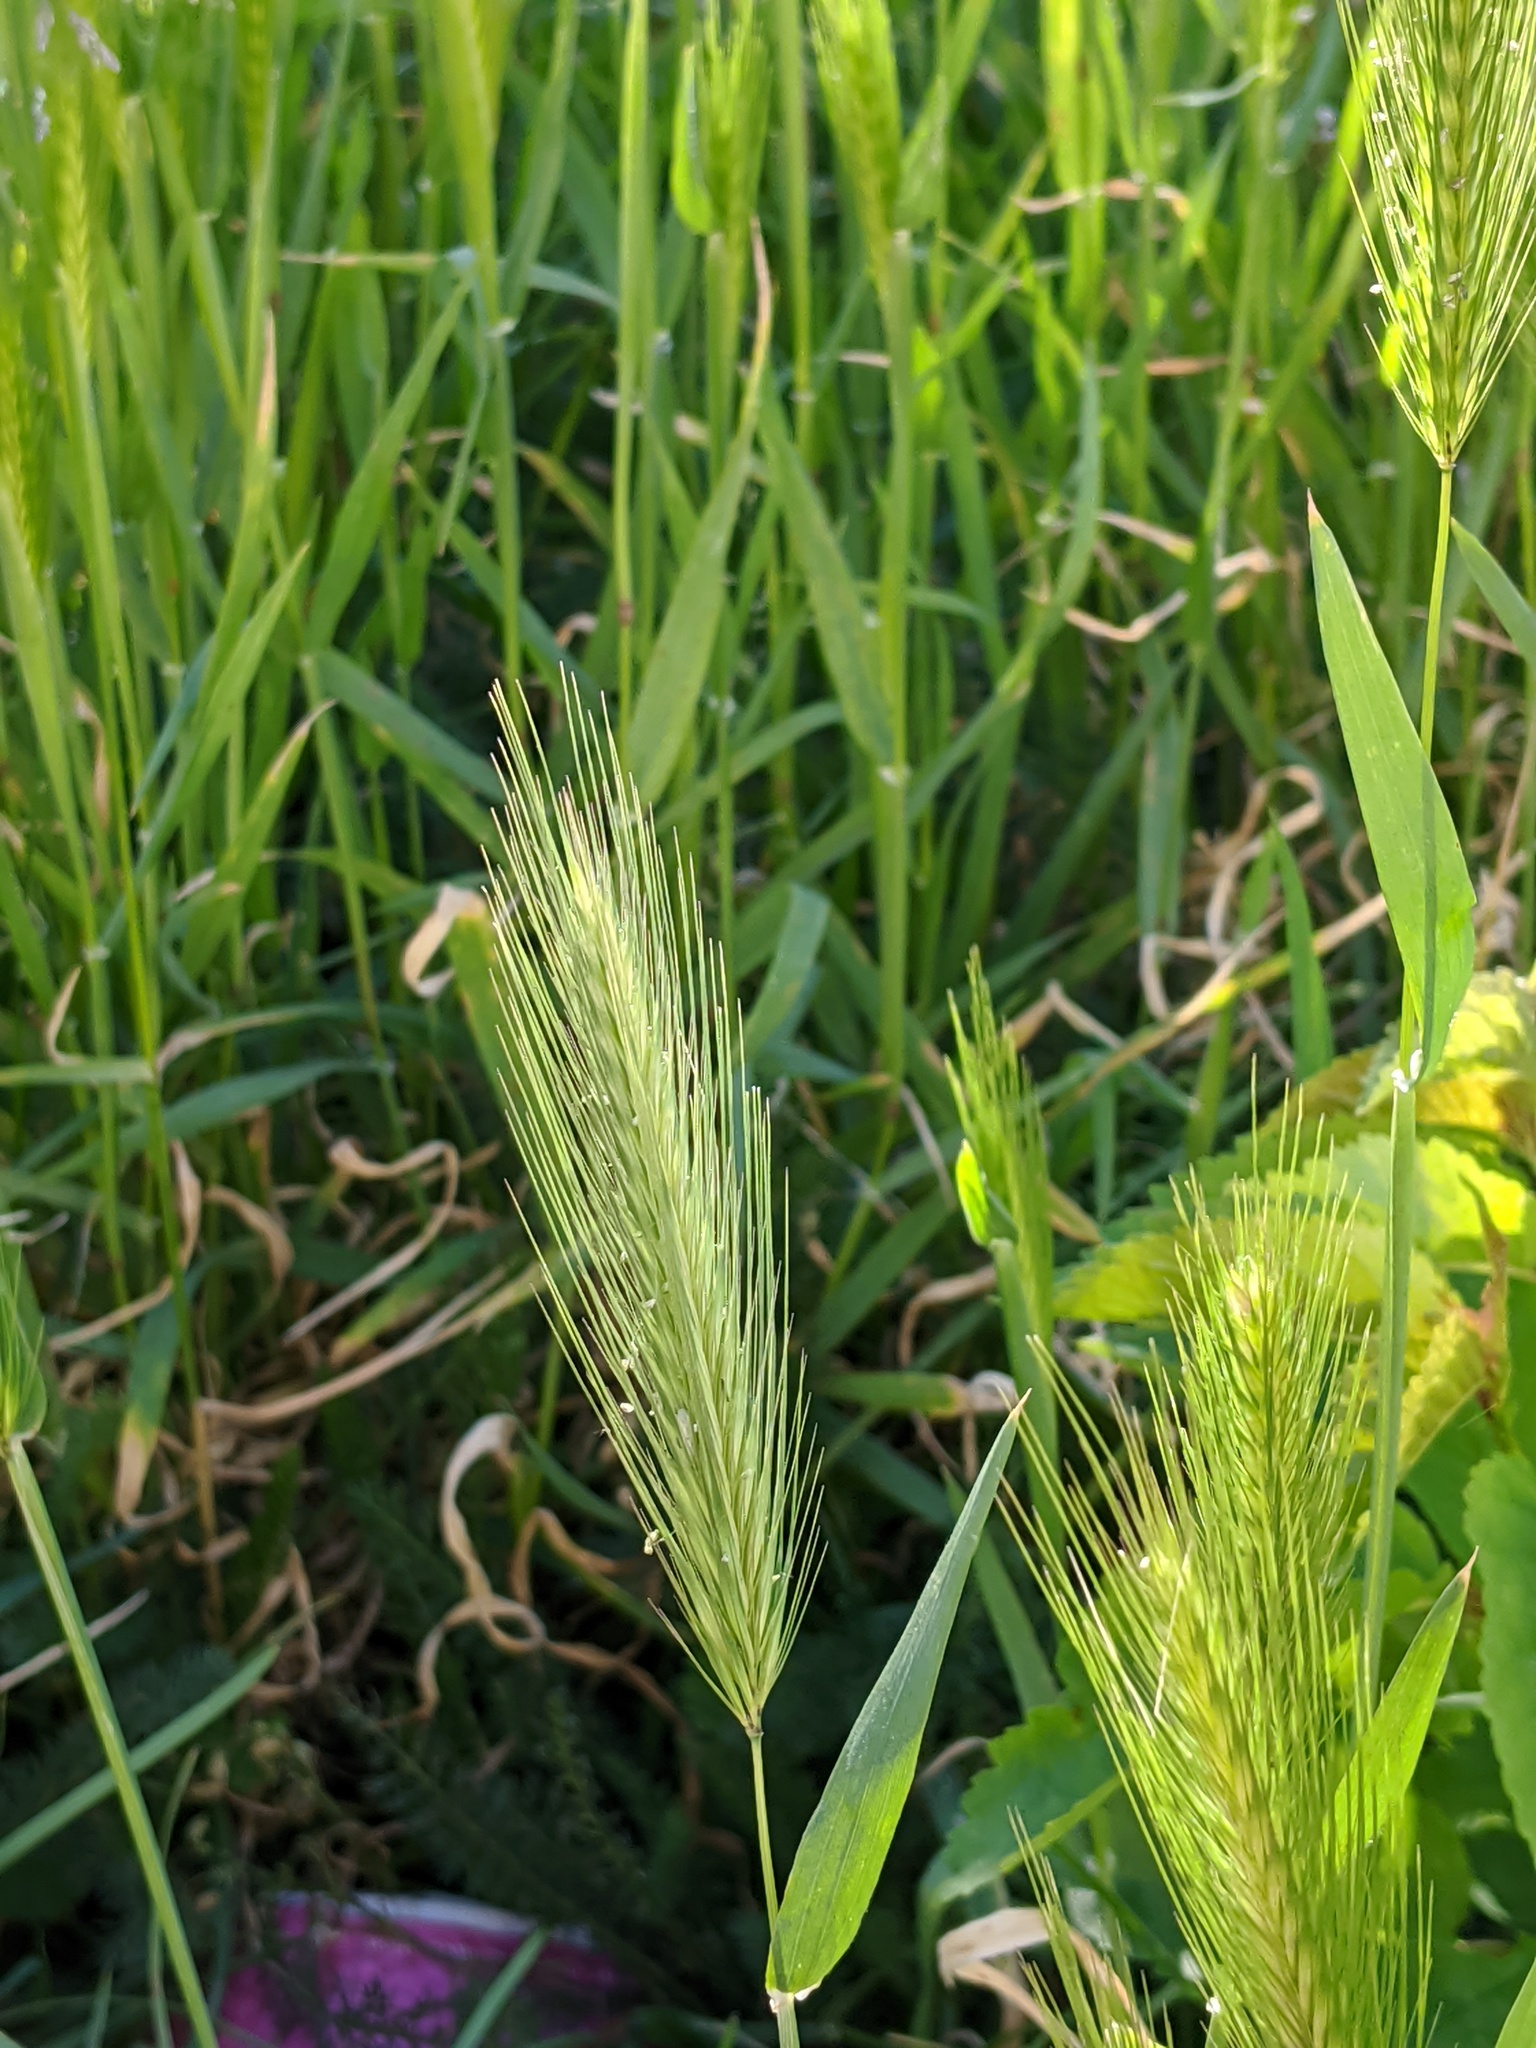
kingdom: Plantae
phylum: Tracheophyta
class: Liliopsida
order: Poales
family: Poaceae
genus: Hordeum
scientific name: Hordeum murinum
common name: Wall barley
